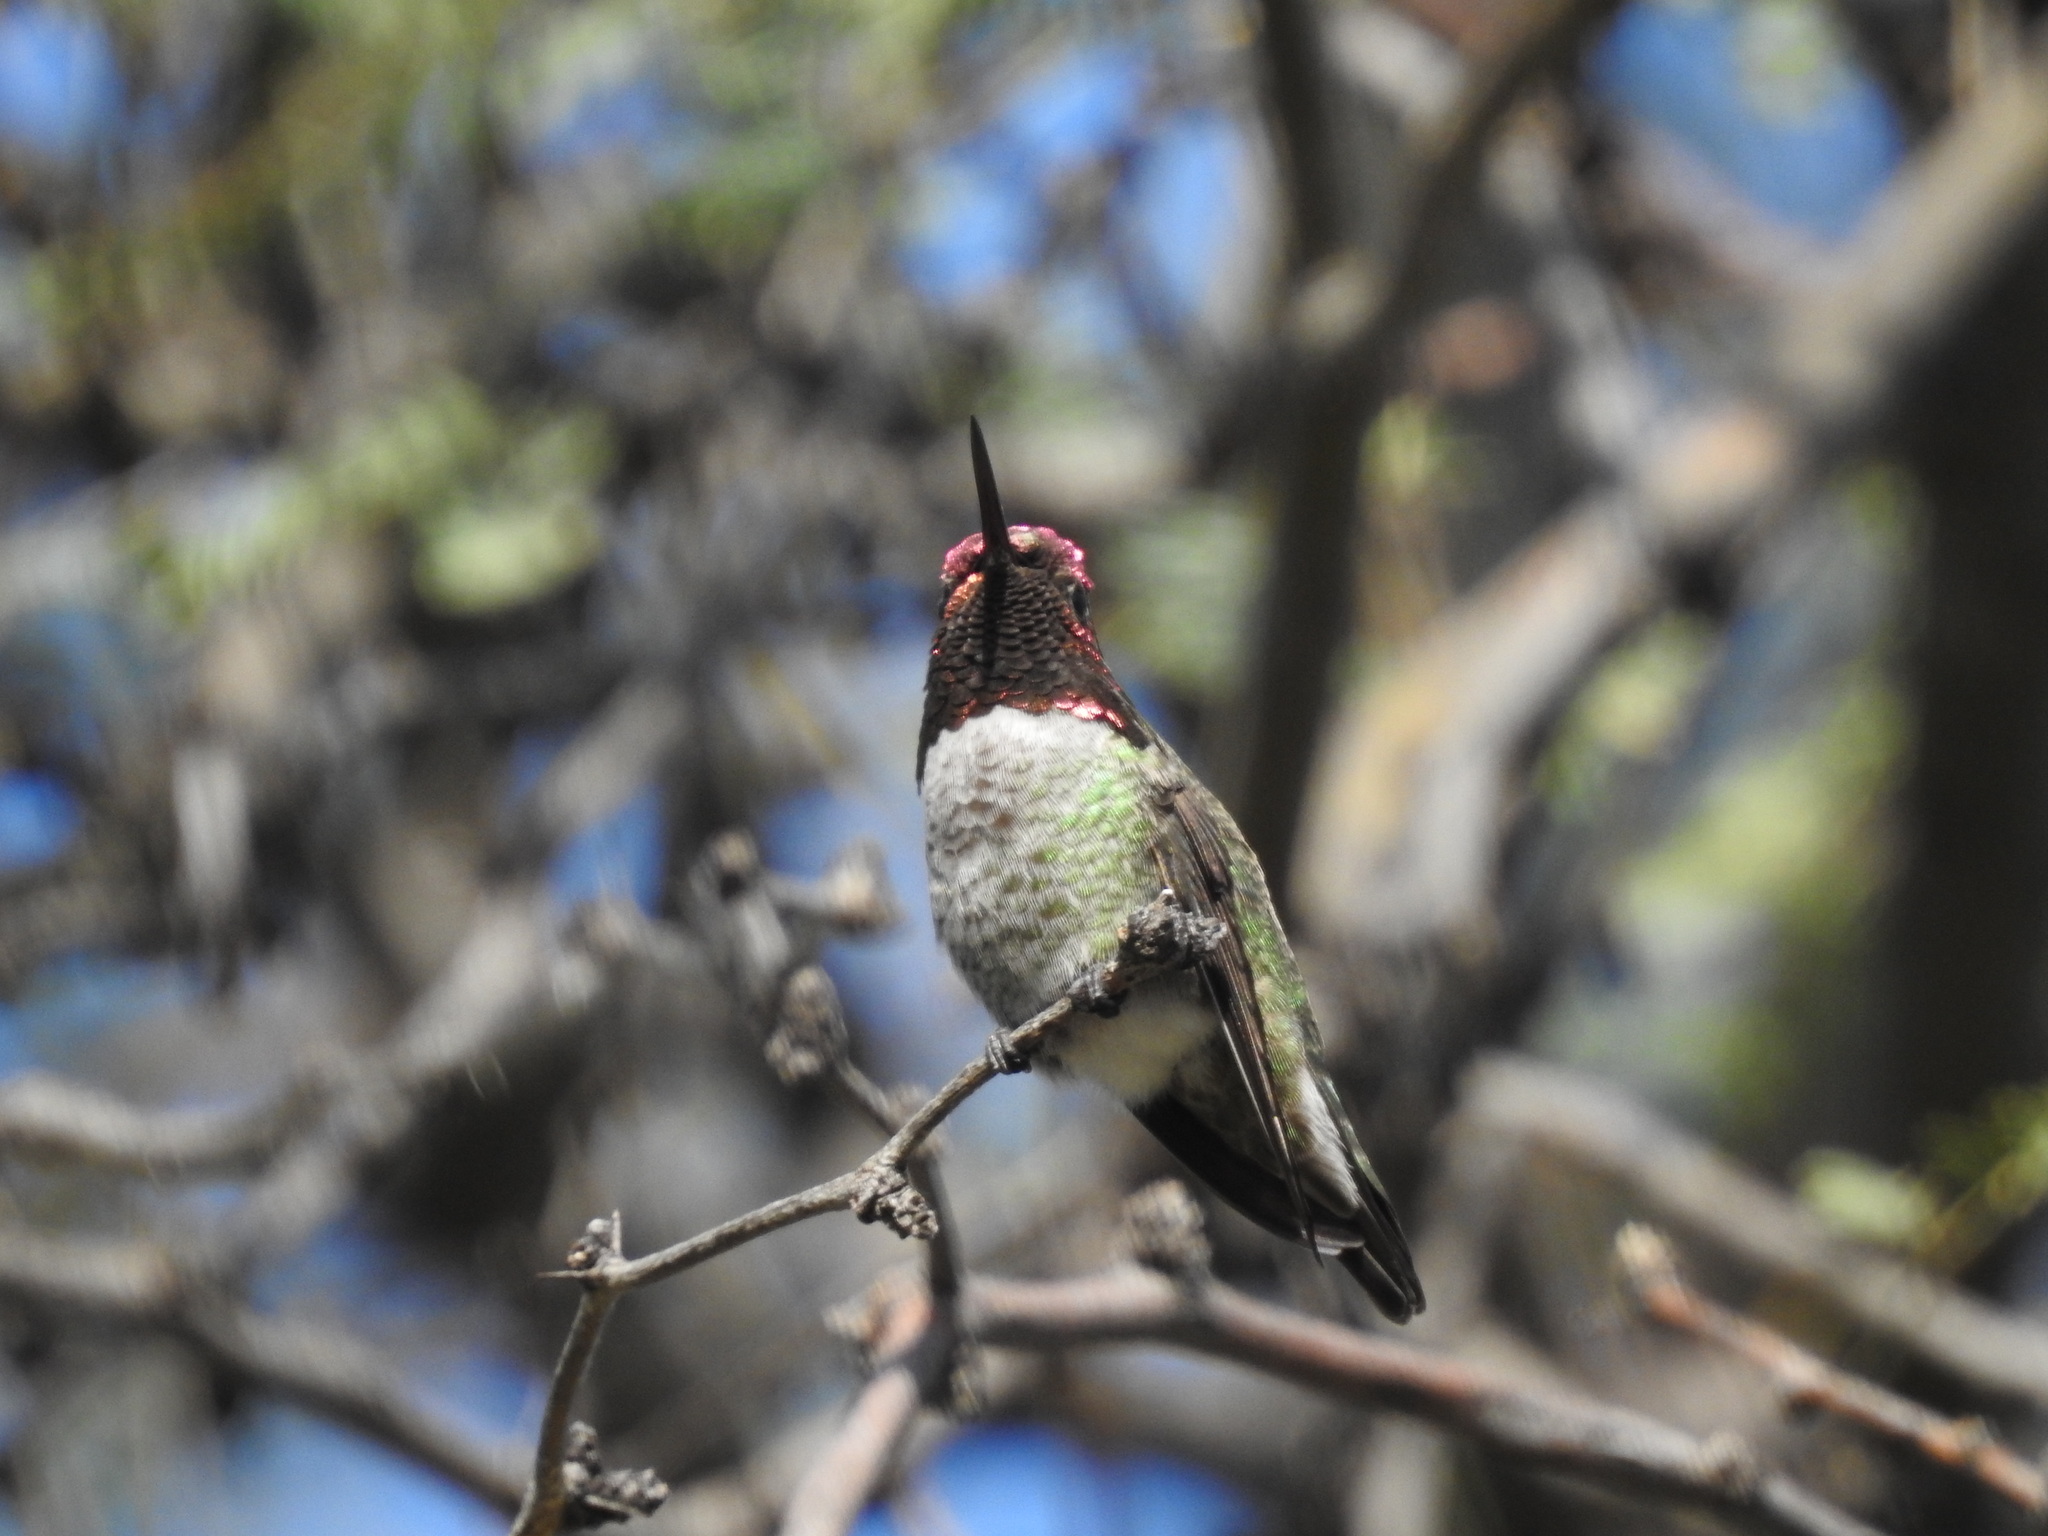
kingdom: Animalia
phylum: Chordata
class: Aves
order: Apodiformes
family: Trochilidae
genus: Calypte
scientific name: Calypte anna
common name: Anna's hummingbird
